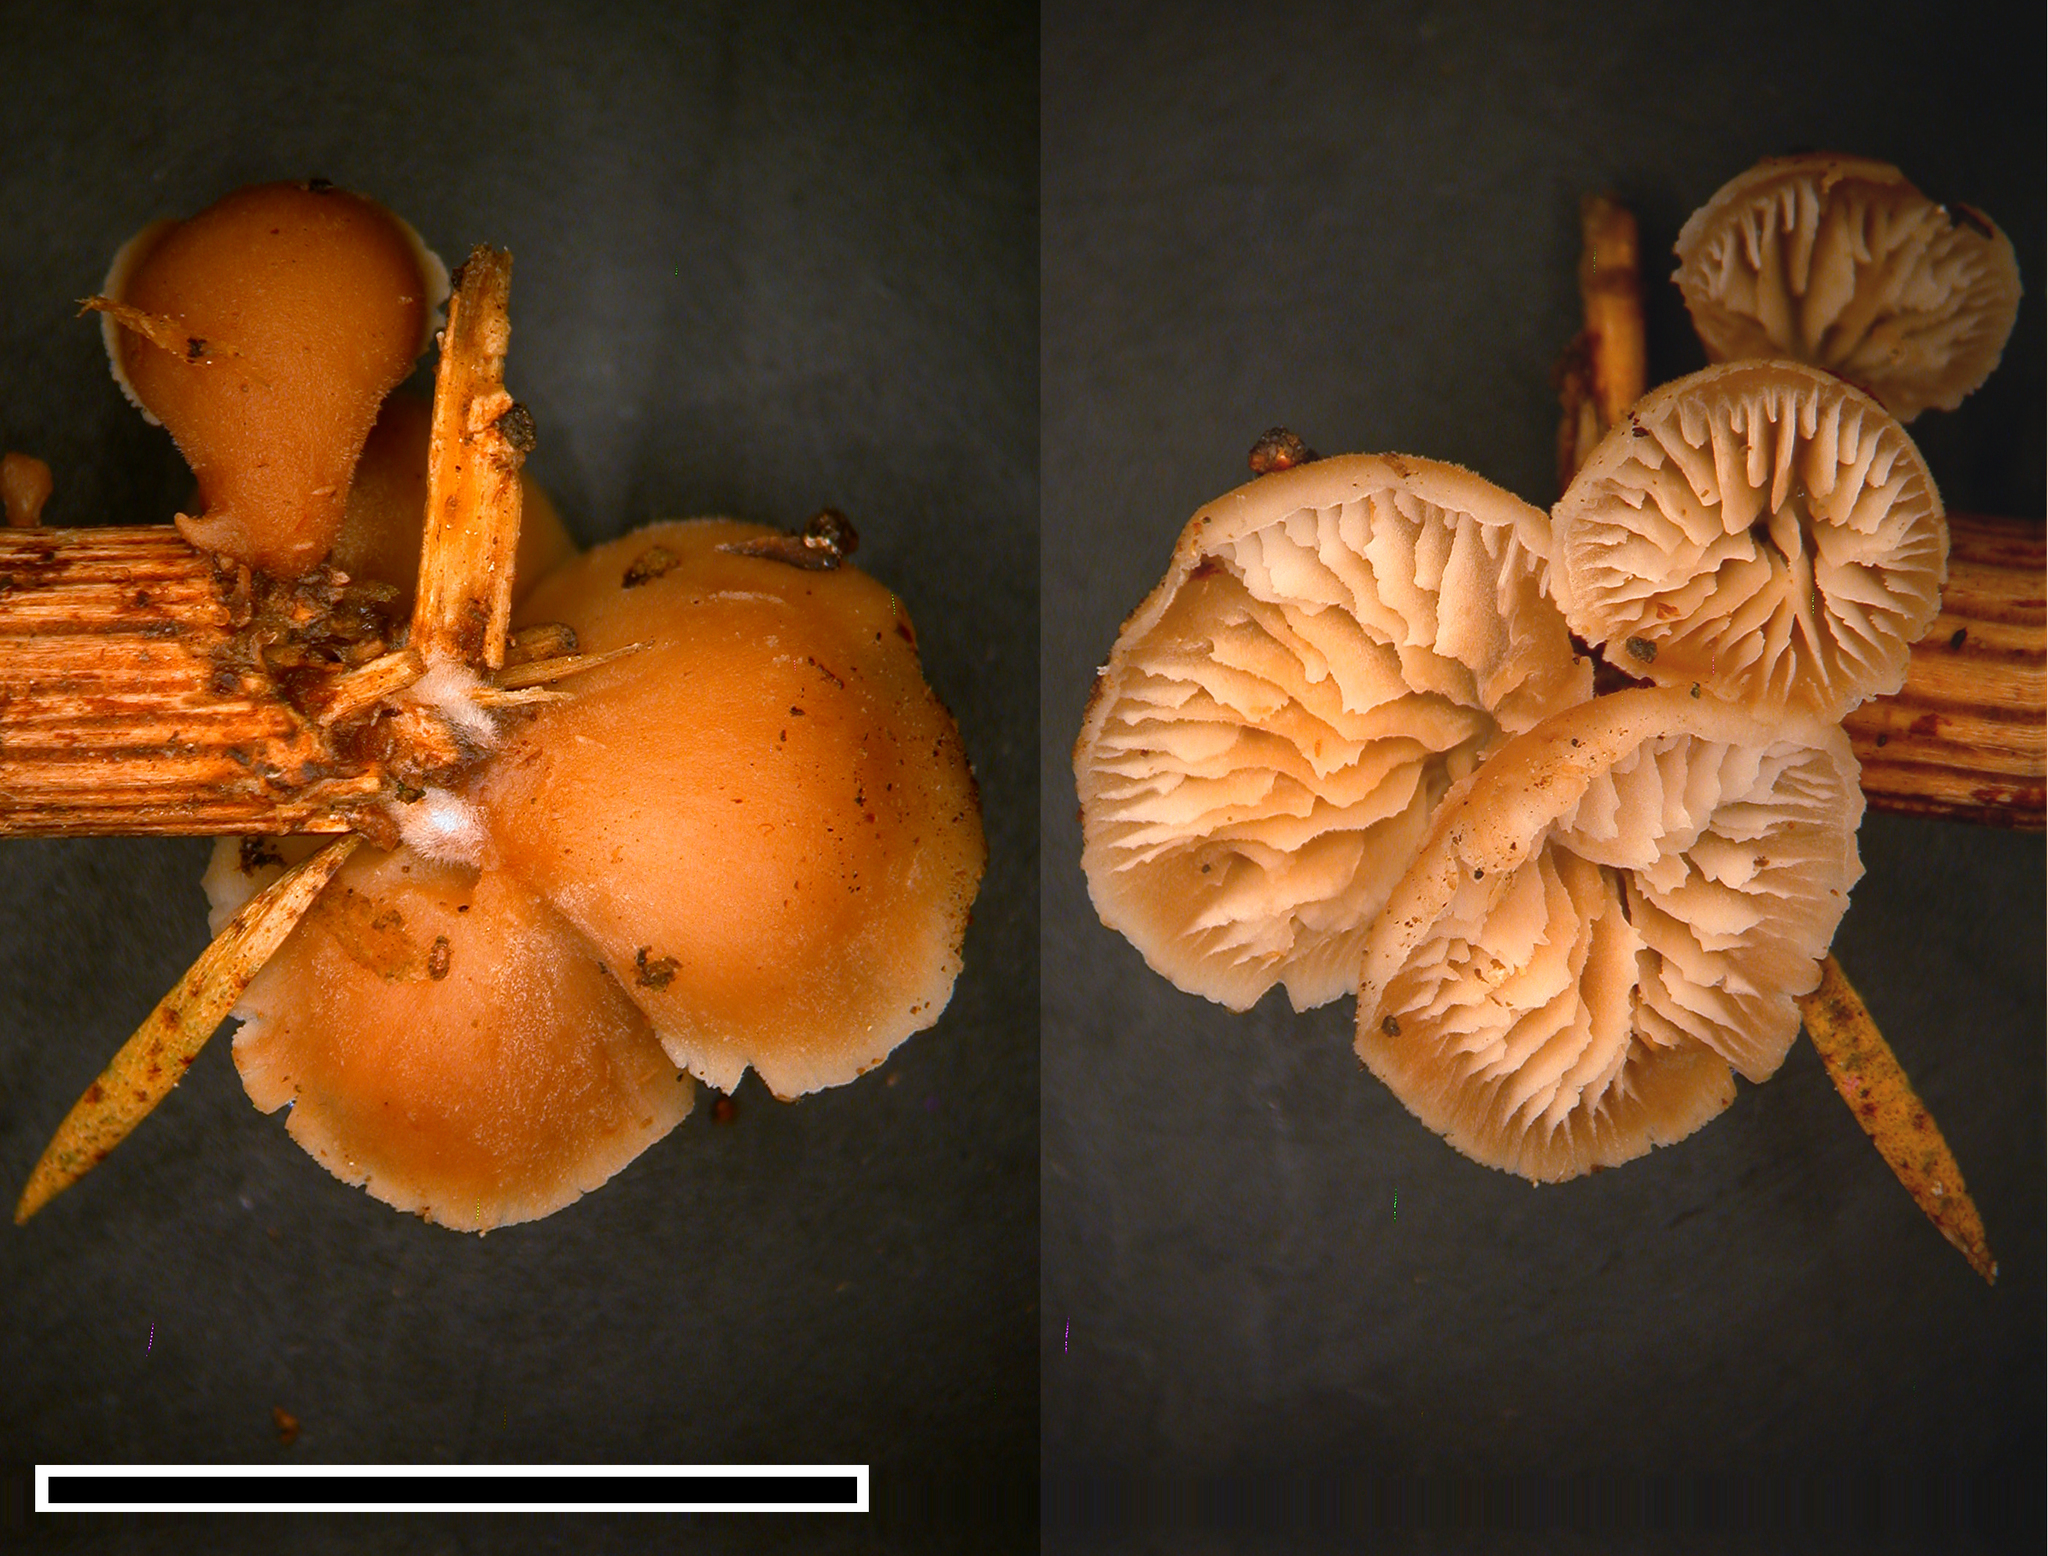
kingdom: Fungi
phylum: Basidiomycota
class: Agaricomycetes
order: Russulales
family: Auriscalpiaceae
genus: Lentinellus
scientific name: Lentinellus pulvinulus
